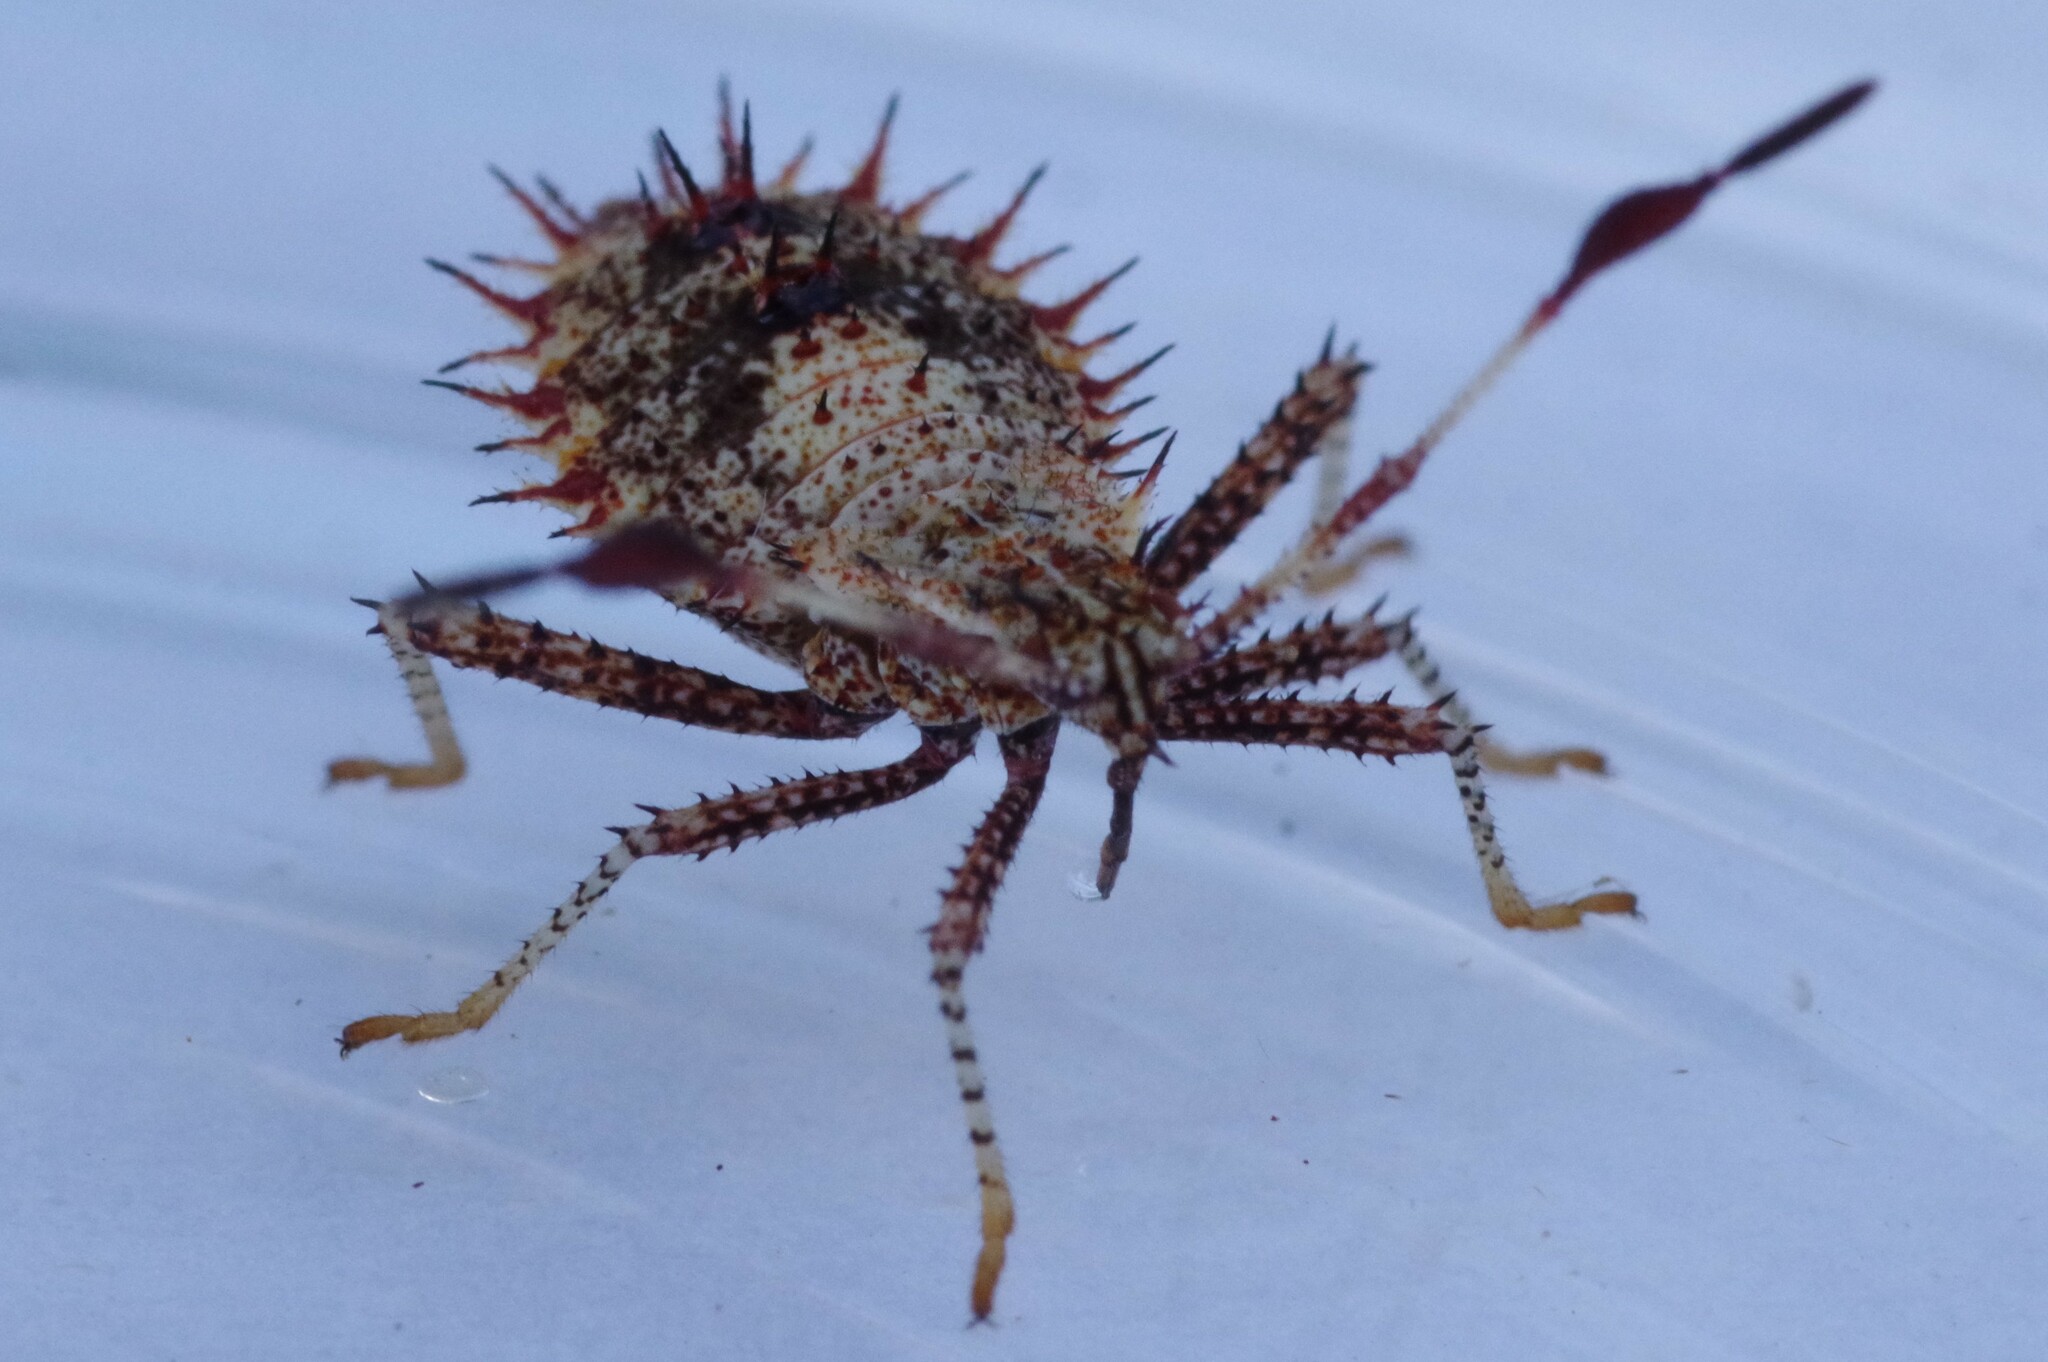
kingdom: Animalia
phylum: Arthropoda
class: Insecta
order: Hemiptera
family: Coreidae
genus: Euthochtha
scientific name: Euthochtha galeator
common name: Helmeted squash bug
